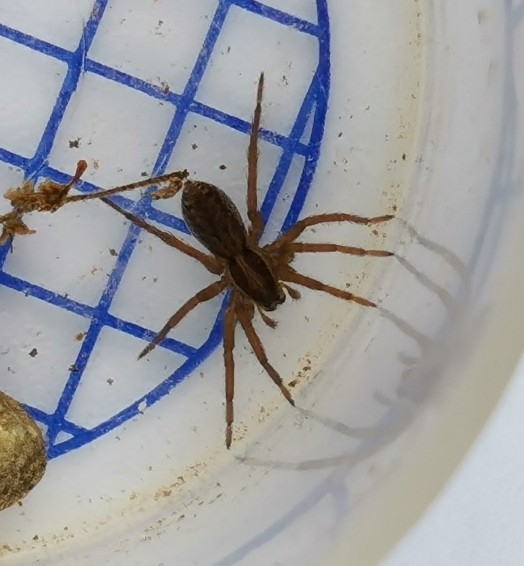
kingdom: Animalia
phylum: Arthropoda
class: Arachnida
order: Araneae
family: Lycosidae
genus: Hogna
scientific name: Hogna radiata
